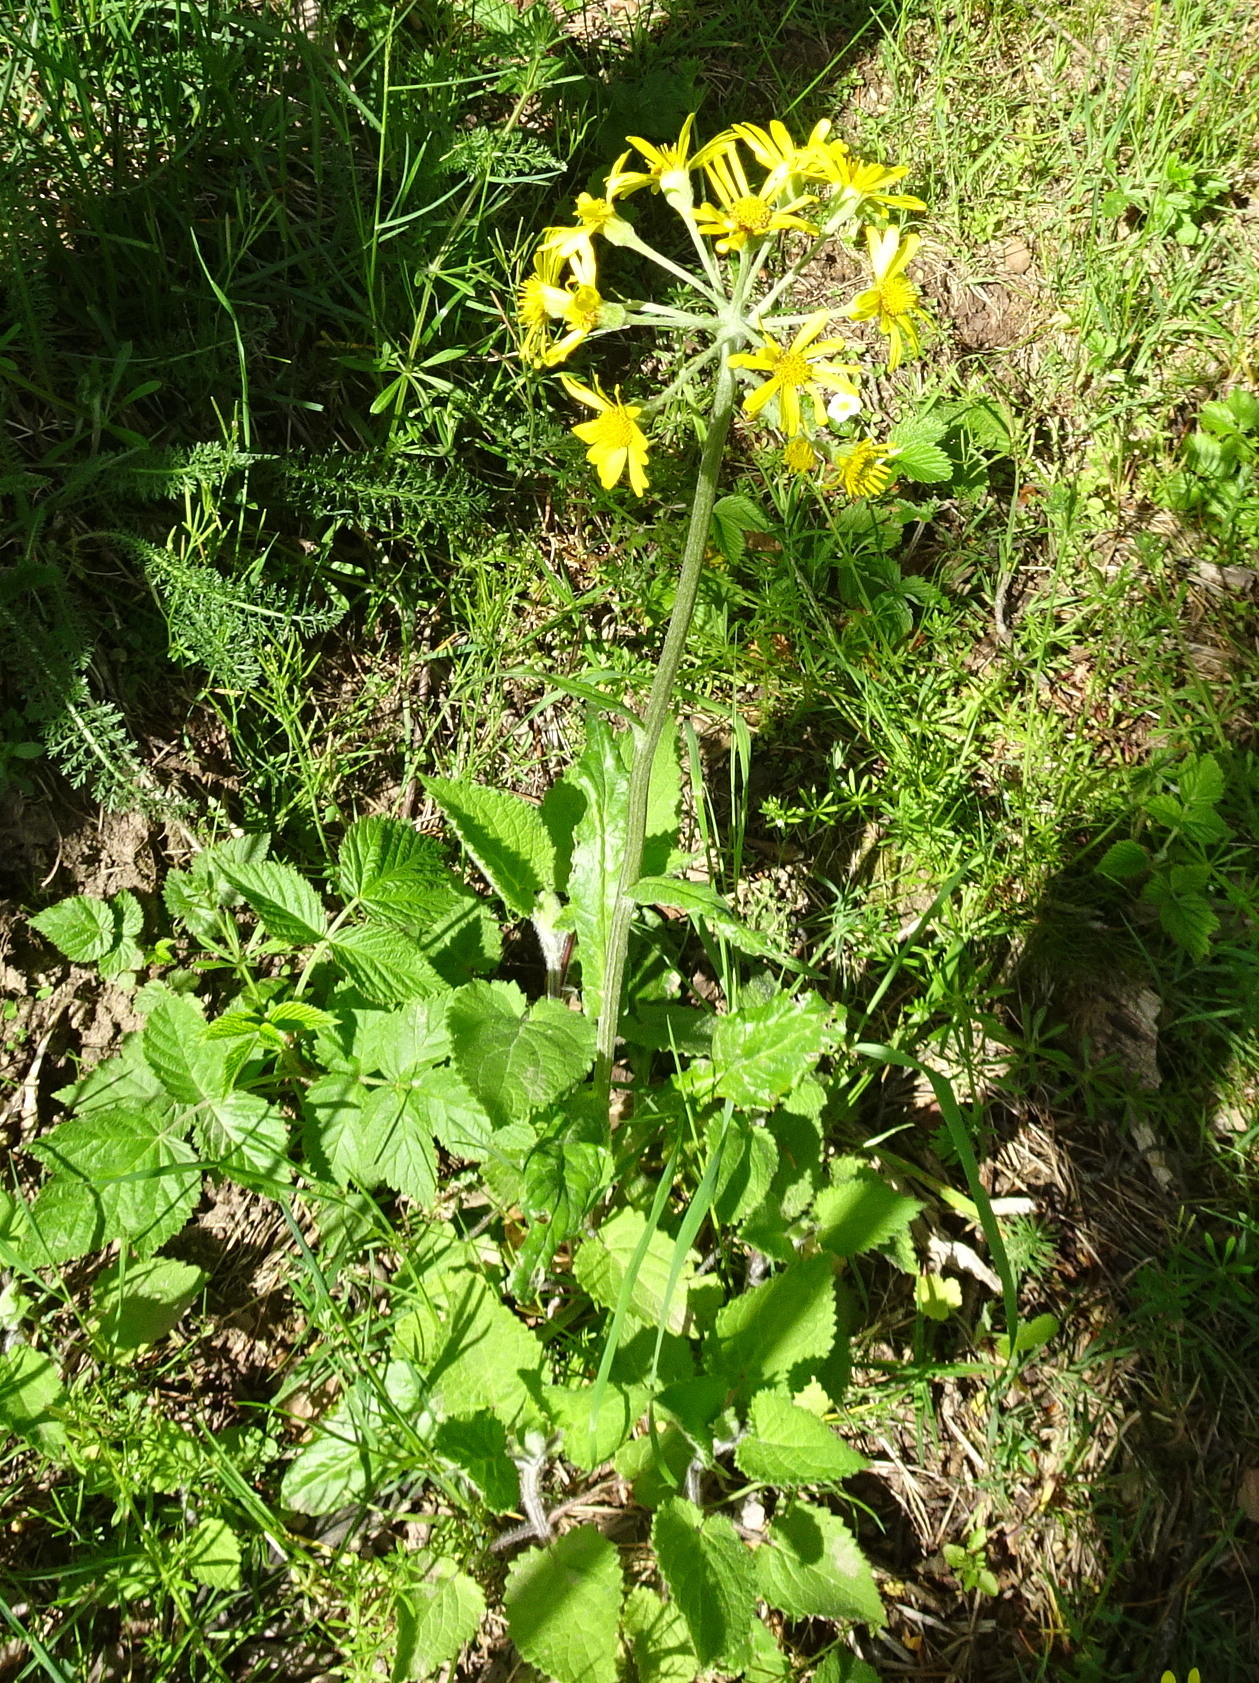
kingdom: Plantae
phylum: Tracheophyta
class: Magnoliopsida
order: Asterales
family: Asteraceae
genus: Tephroseris
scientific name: Tephroseris helenitis
